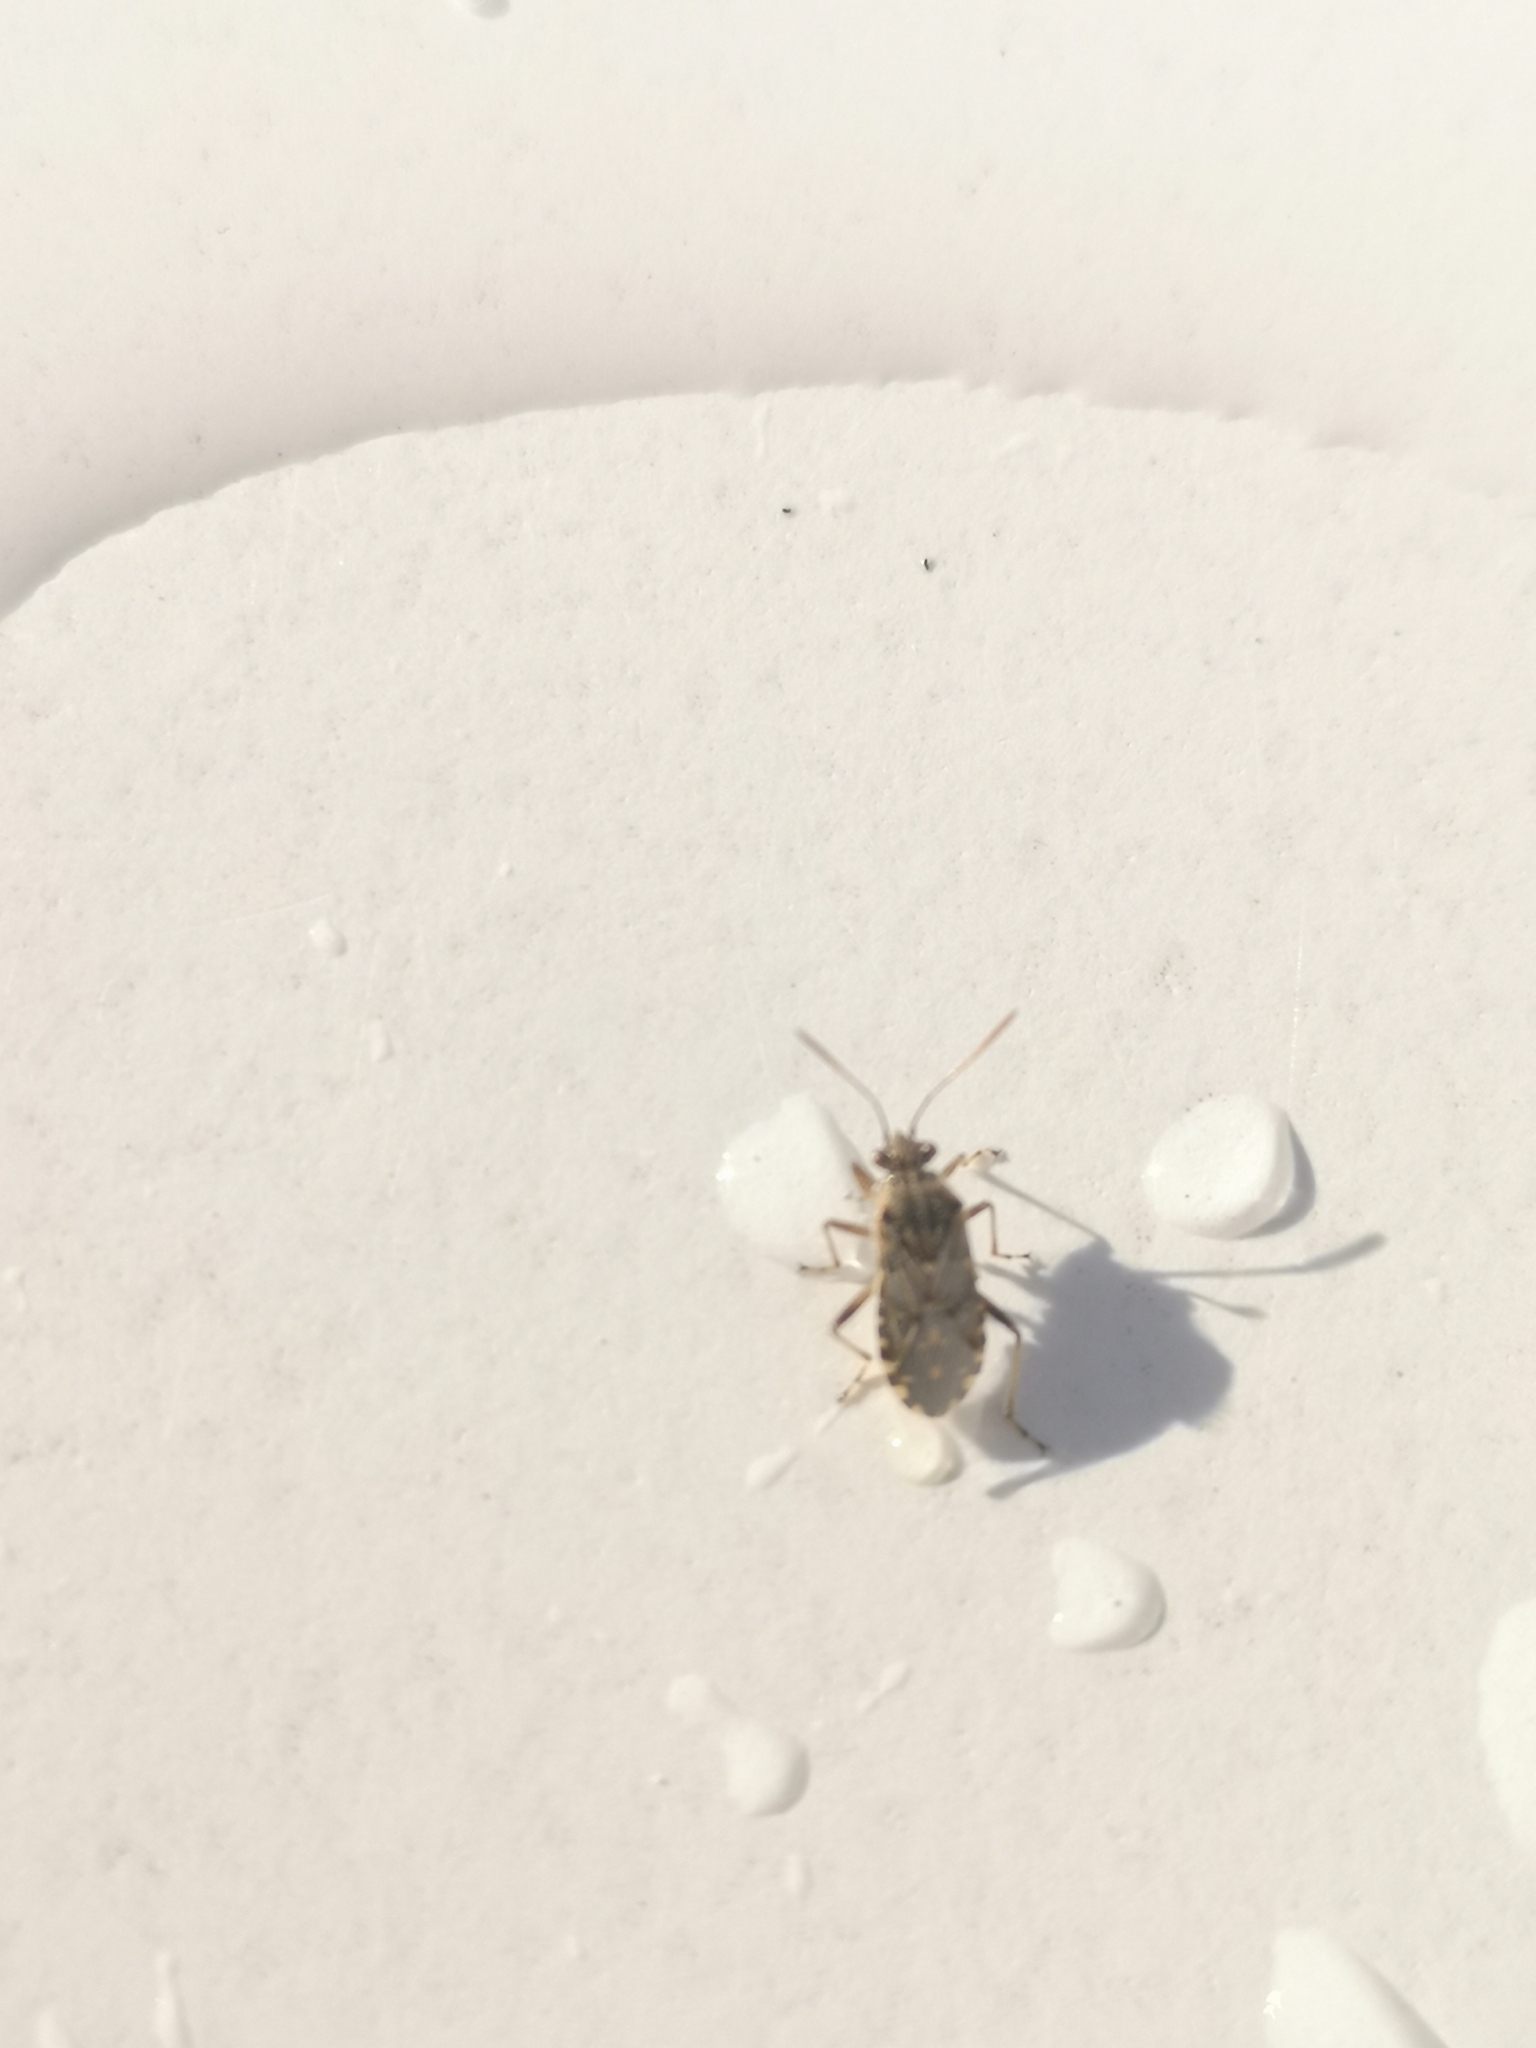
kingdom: Animalia
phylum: Arthropoda
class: Insecta
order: Hemiptera
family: Rhopalidae
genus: Liorhyssus
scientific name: Liorhyssus hyalinus
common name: Scentless plant bug
